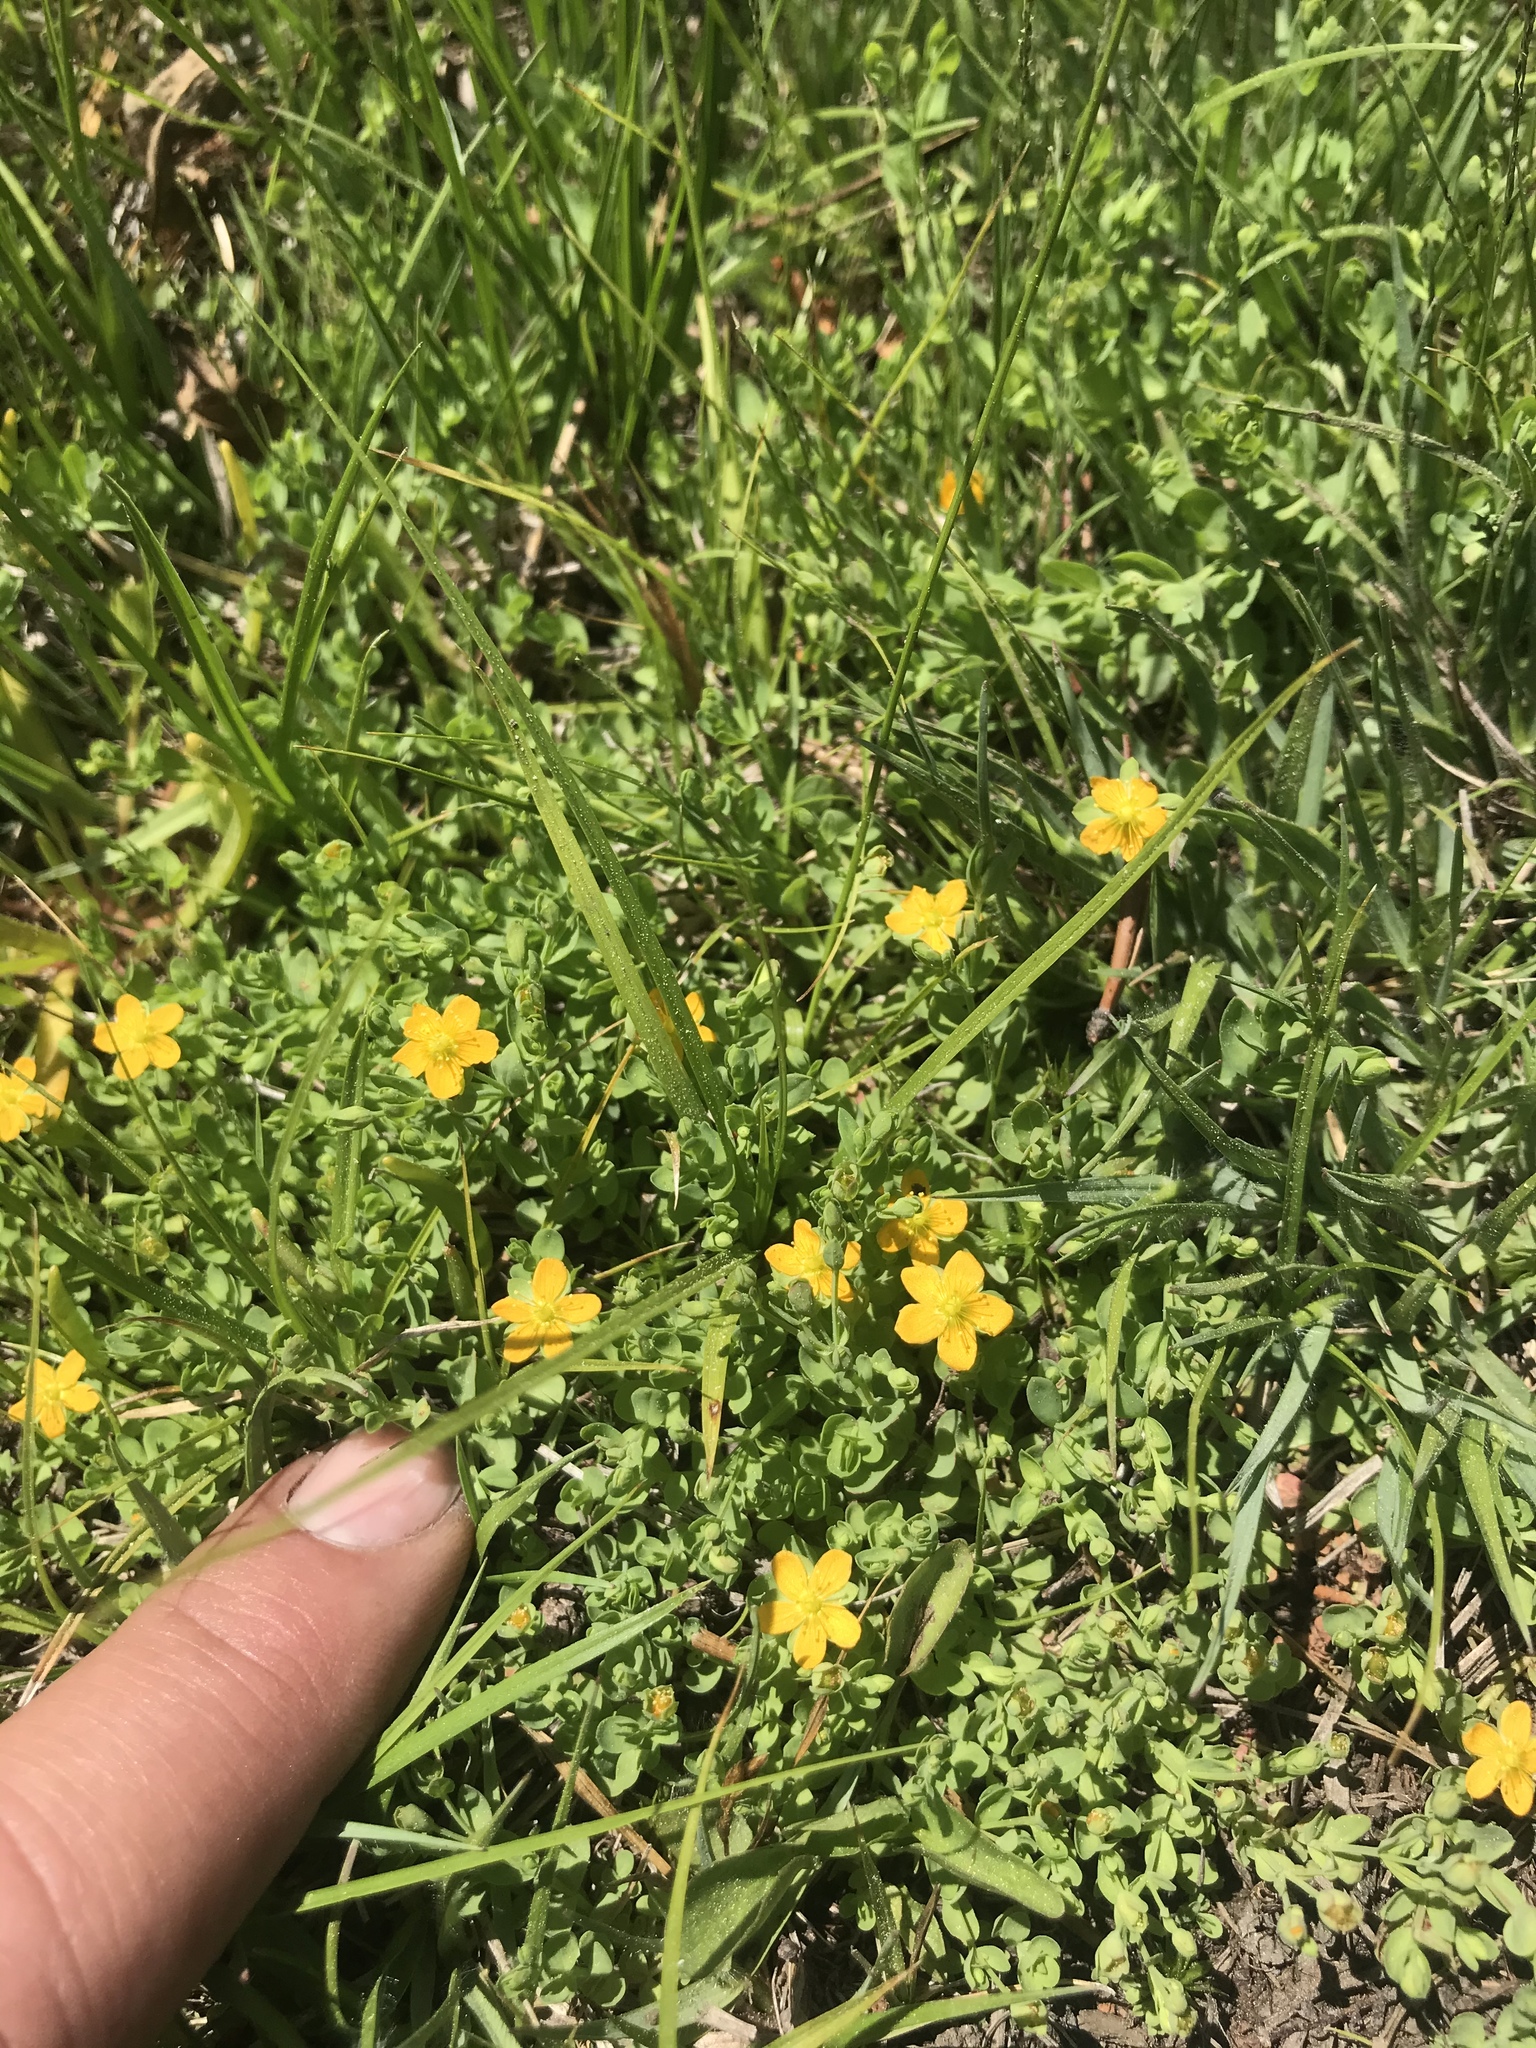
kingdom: Plantae
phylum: Tracheophyta
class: Magnoliopsida
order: Malpighiales
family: Hypericaceae
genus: Hypericum
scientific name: Hypericum anagalloides
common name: Bog st. john's-wort
